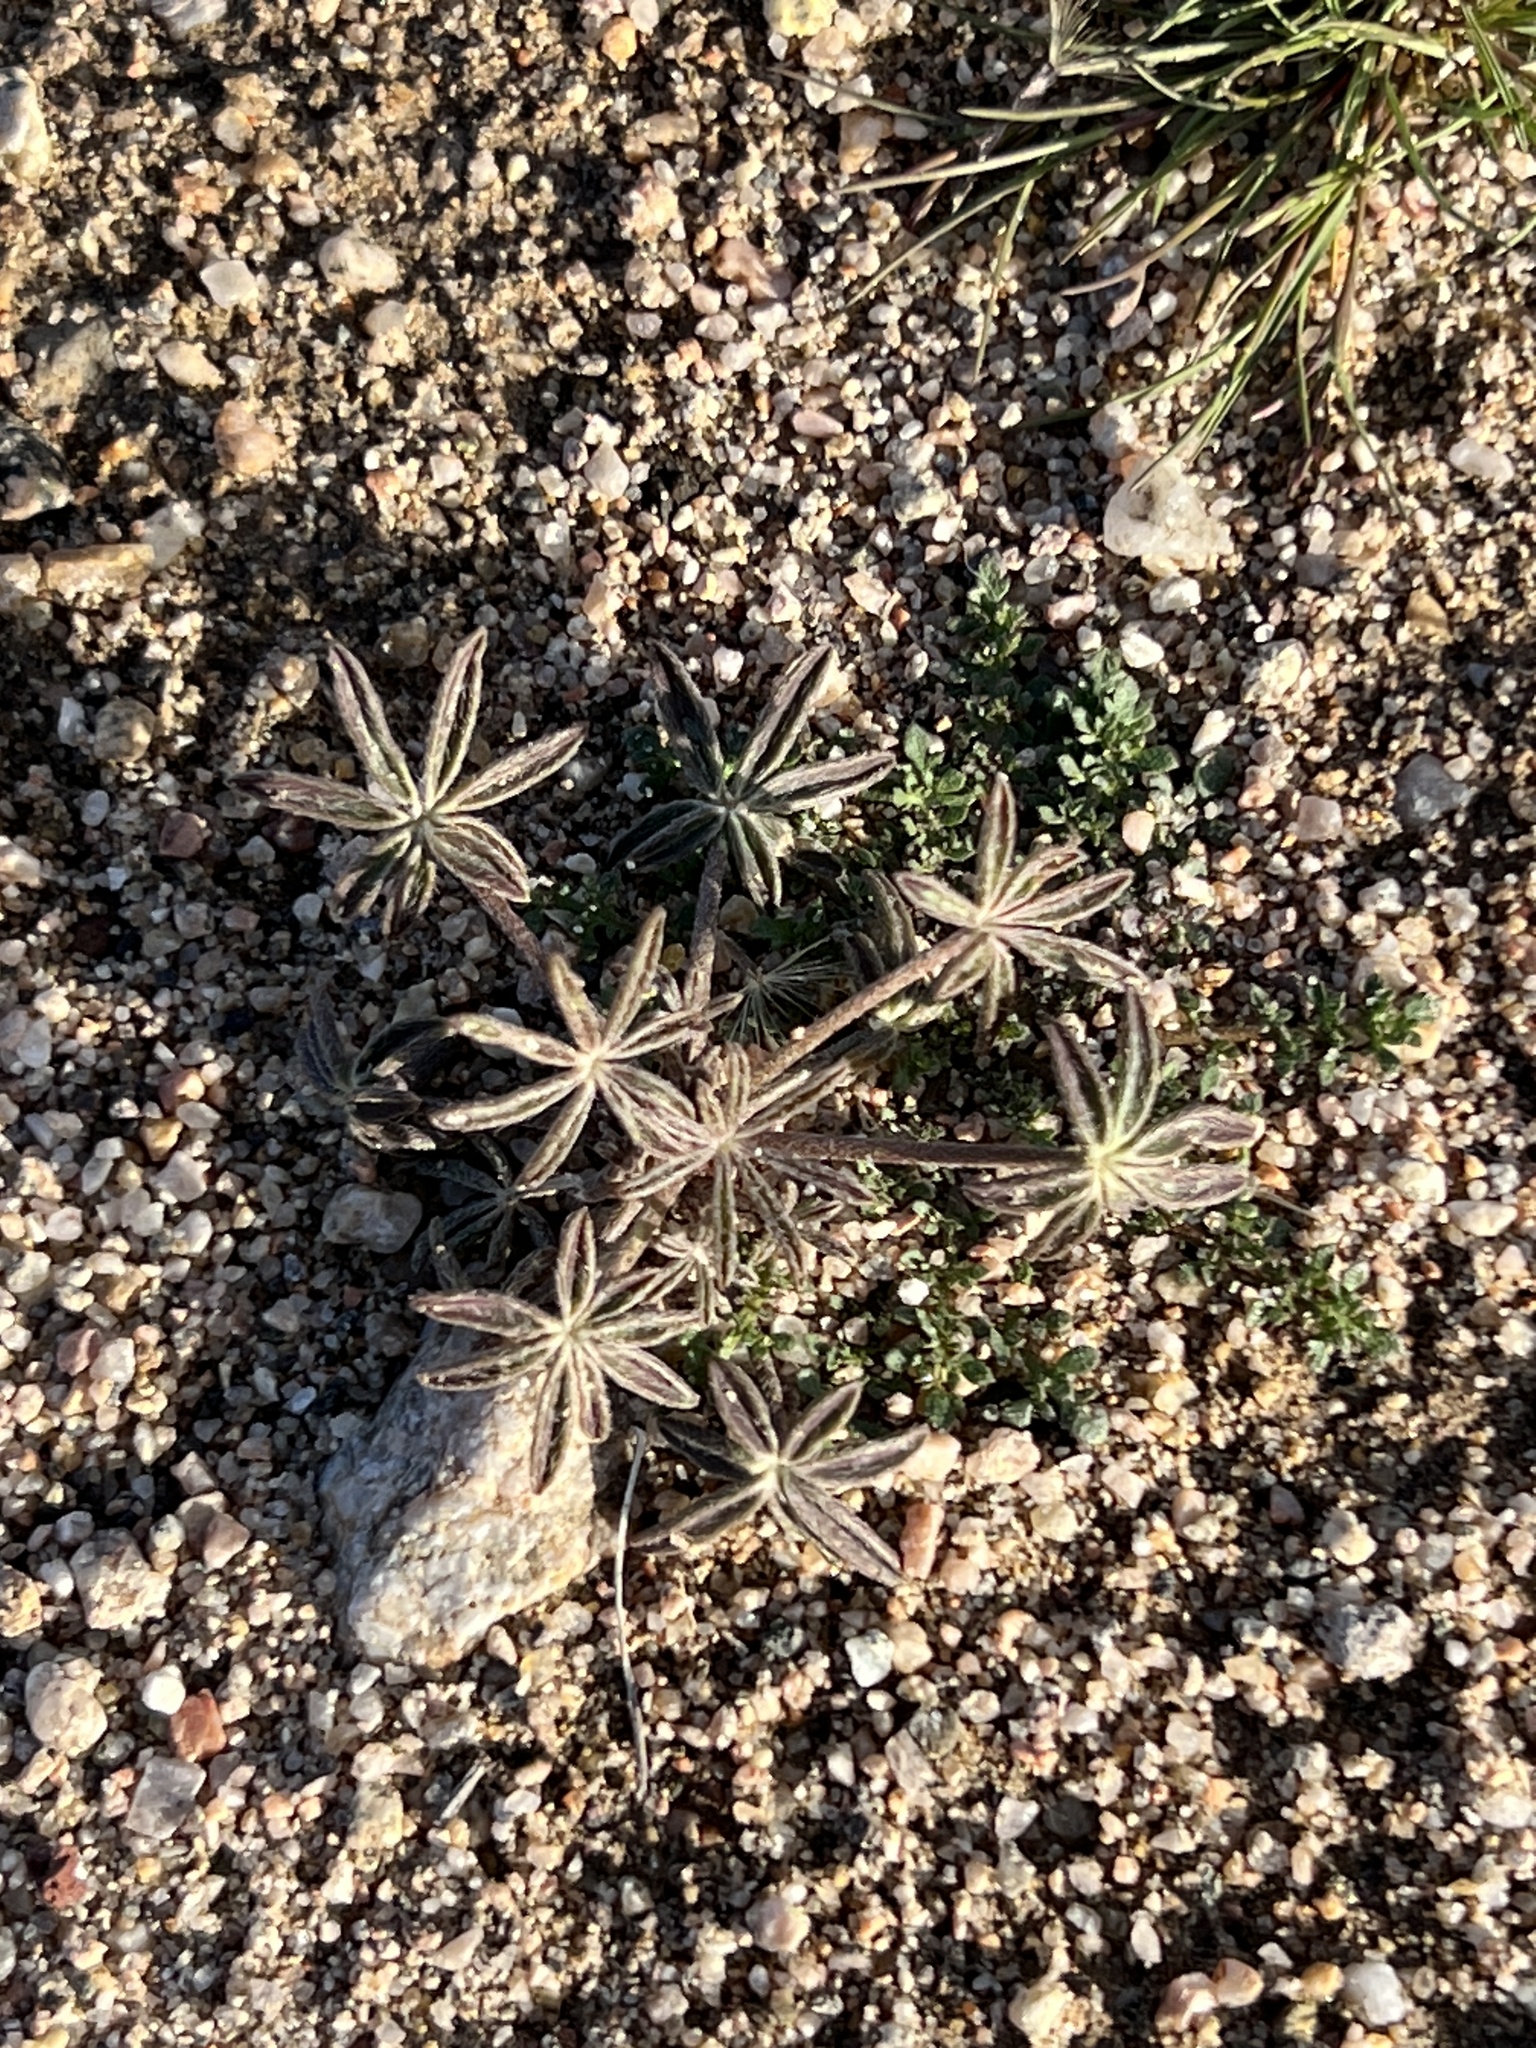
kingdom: Plantae
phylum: Tracheophyta
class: Magnoliopsida
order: Fabales
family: Fabaceae
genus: Lupinus
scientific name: Lupinus sparsiflorus
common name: Coulter's lupine
